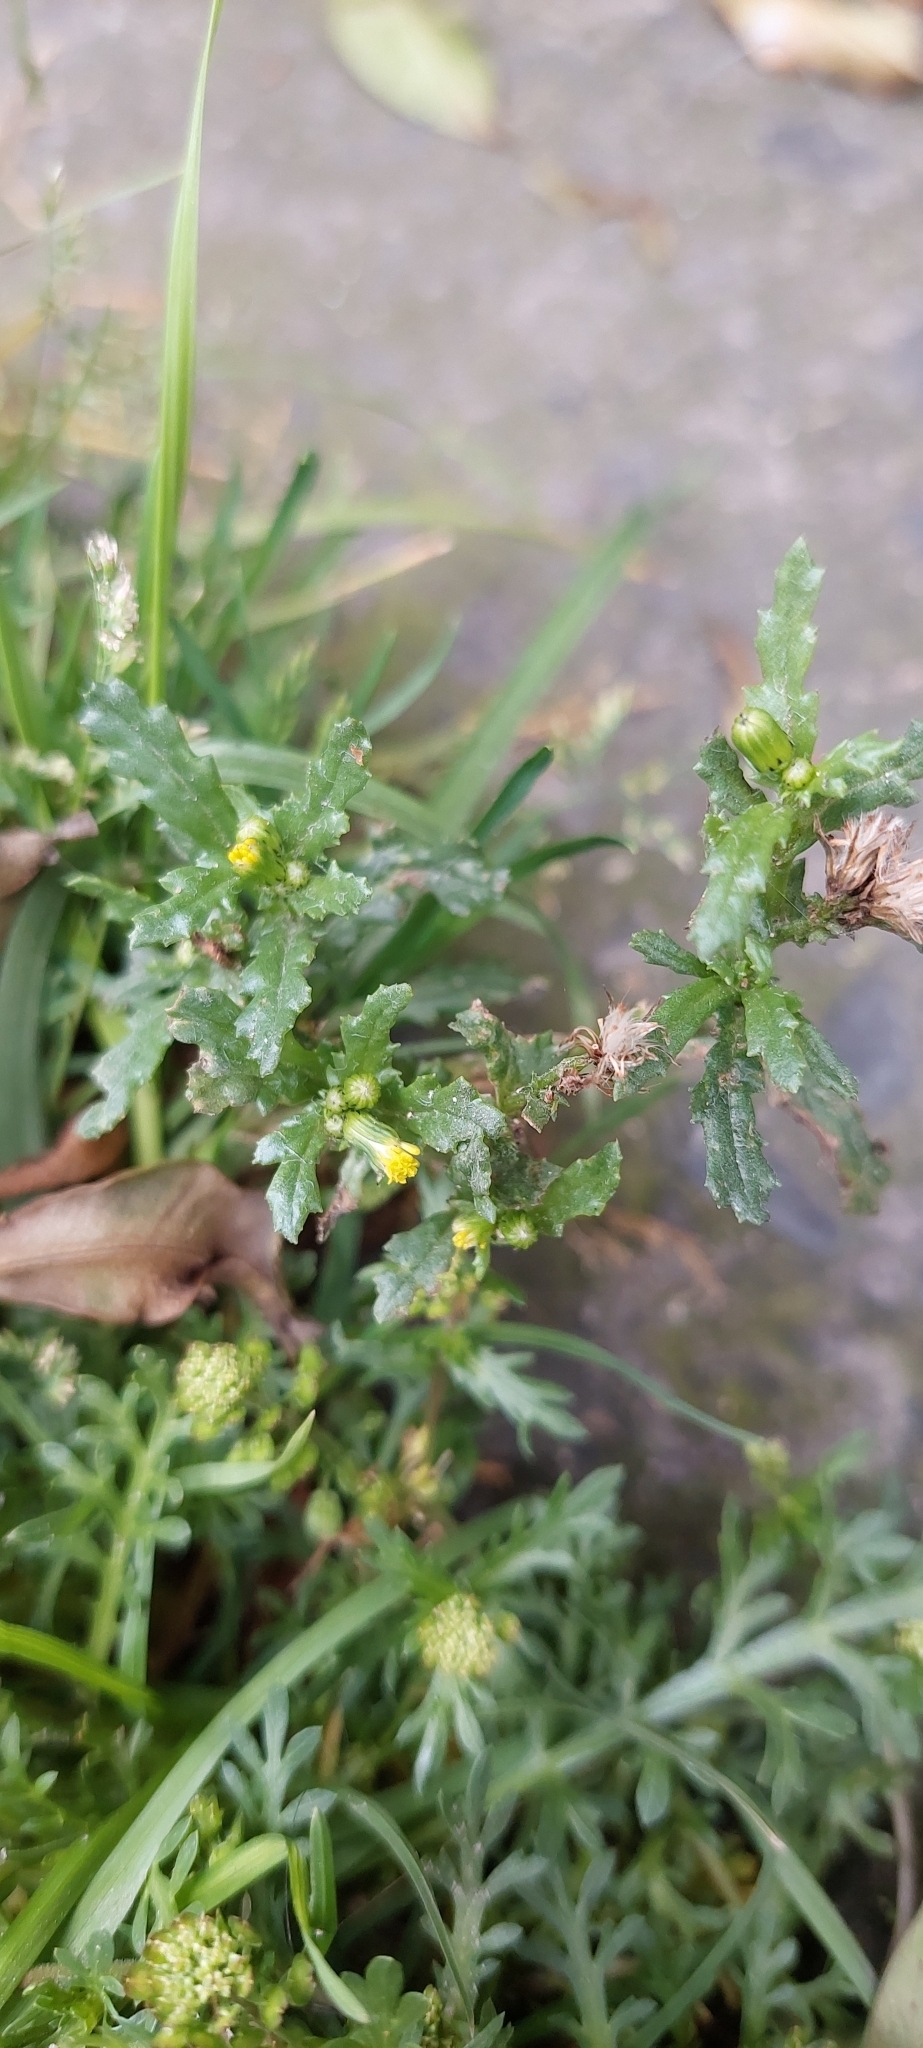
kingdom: Plantae
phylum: Tracheophyta
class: Magnoliopsida
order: Asterales
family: Asteraceae
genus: Senecio
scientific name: Senecio vulgaris
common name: Old-man-in-the-spring
